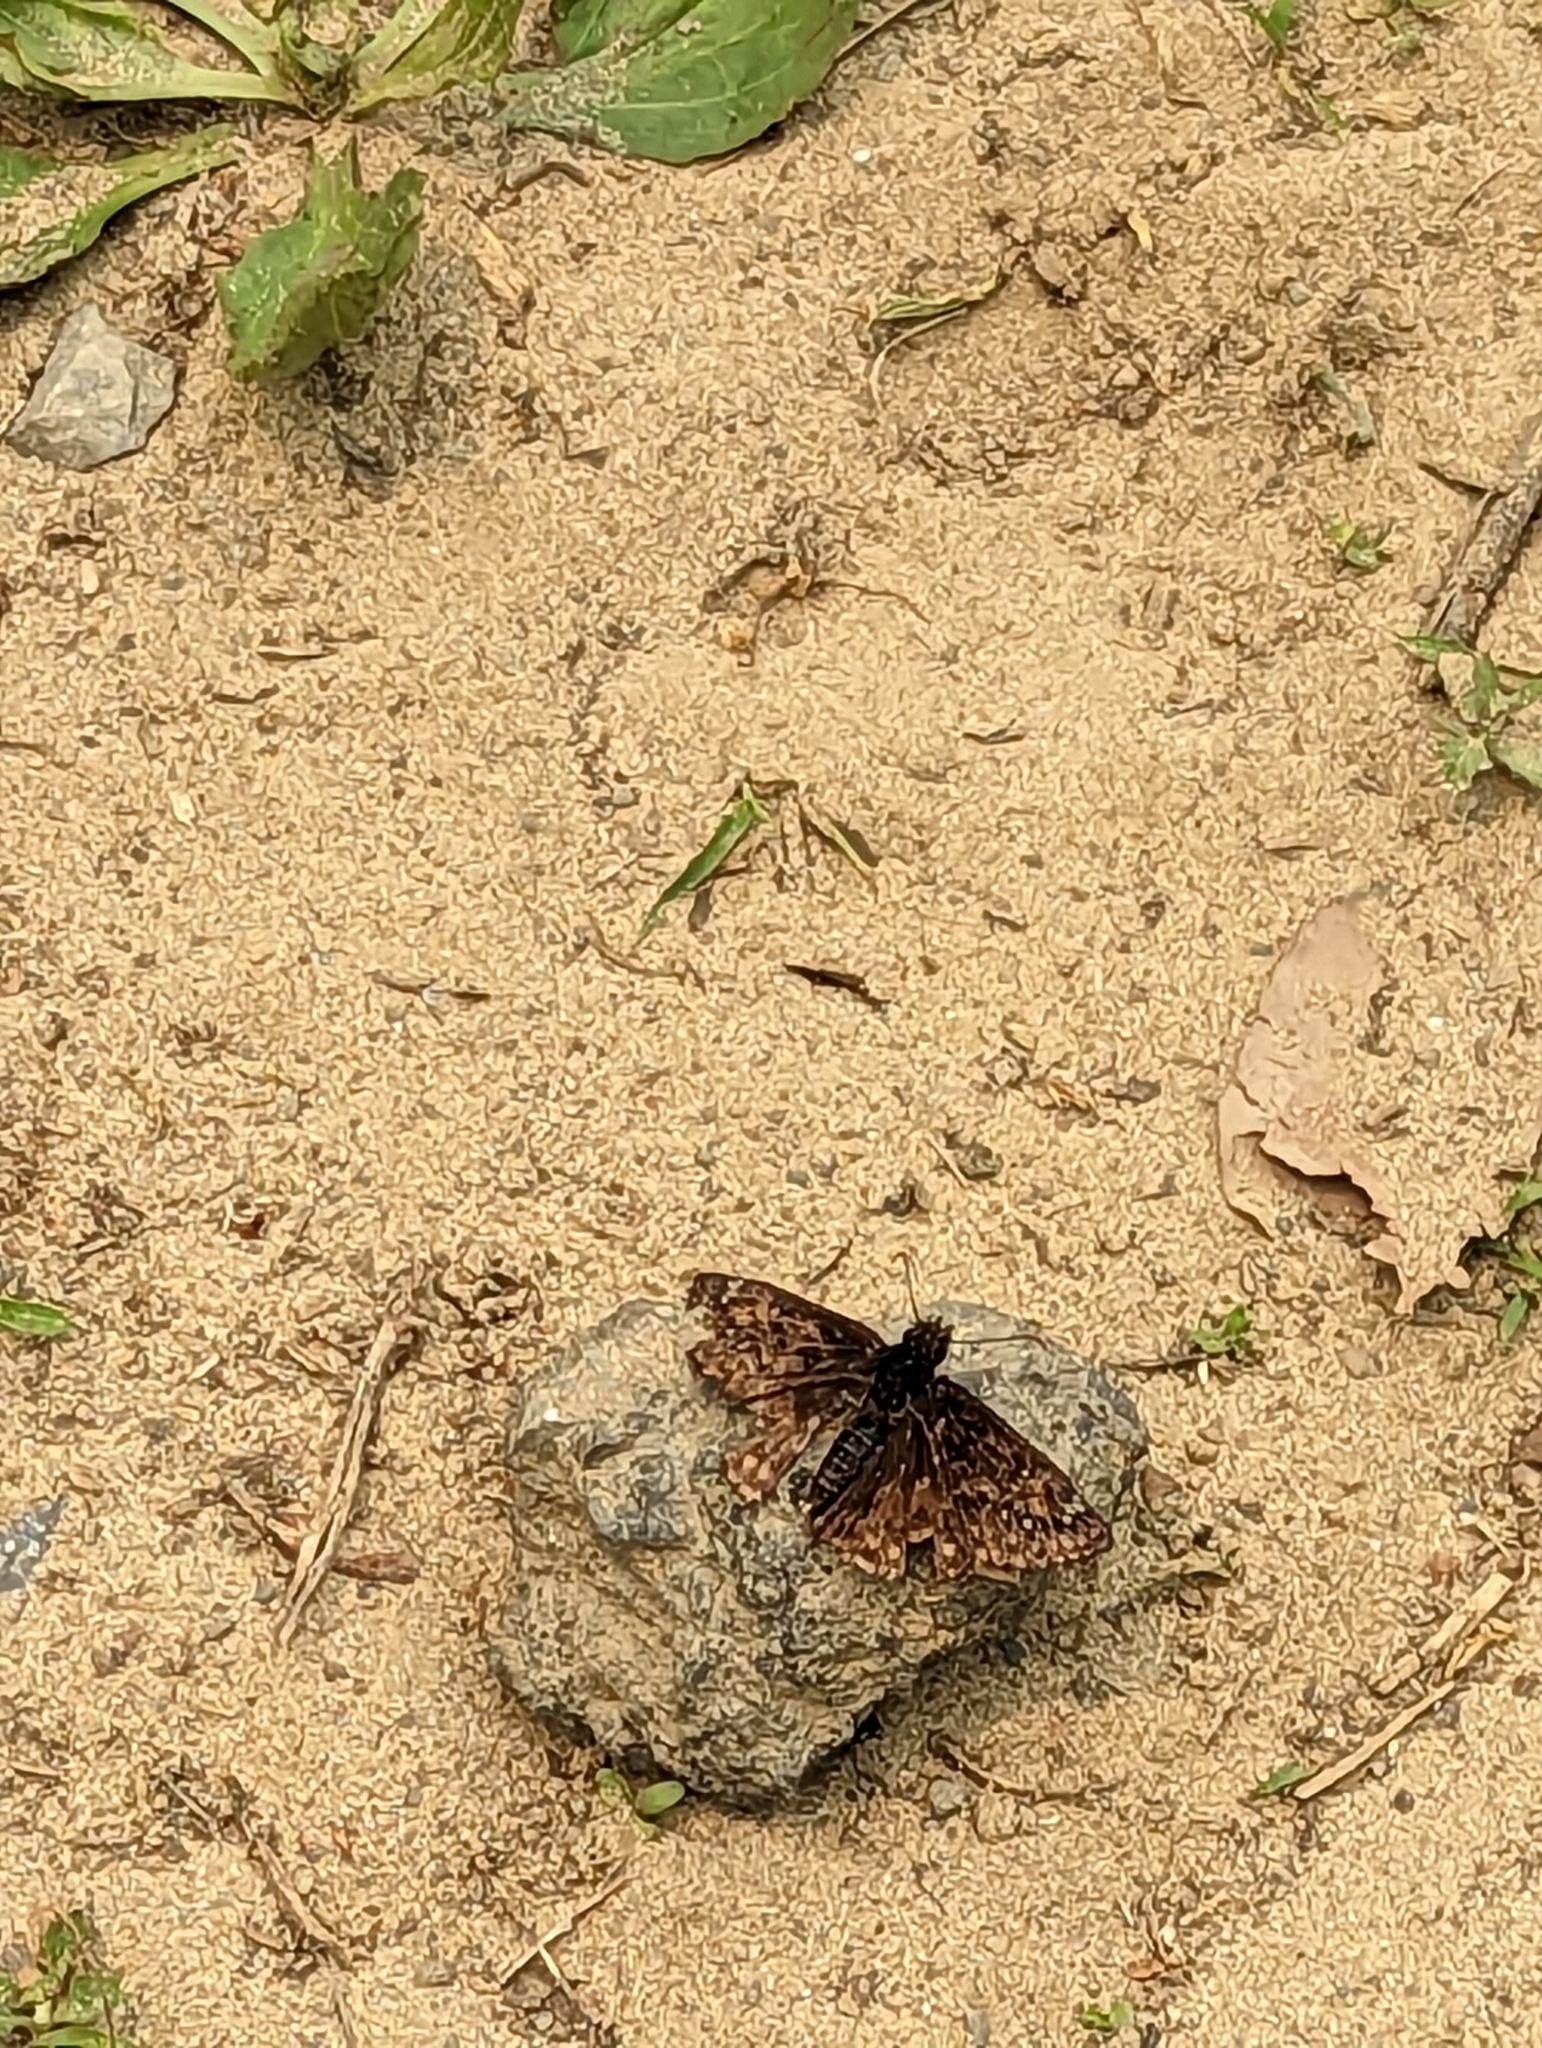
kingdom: Animalia
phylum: Arthropoda
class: Insecta
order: Lepidoptera
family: Hesperiidae
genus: Erynnis
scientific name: Erynnis juvenalis
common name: Juvenal's duskywing
